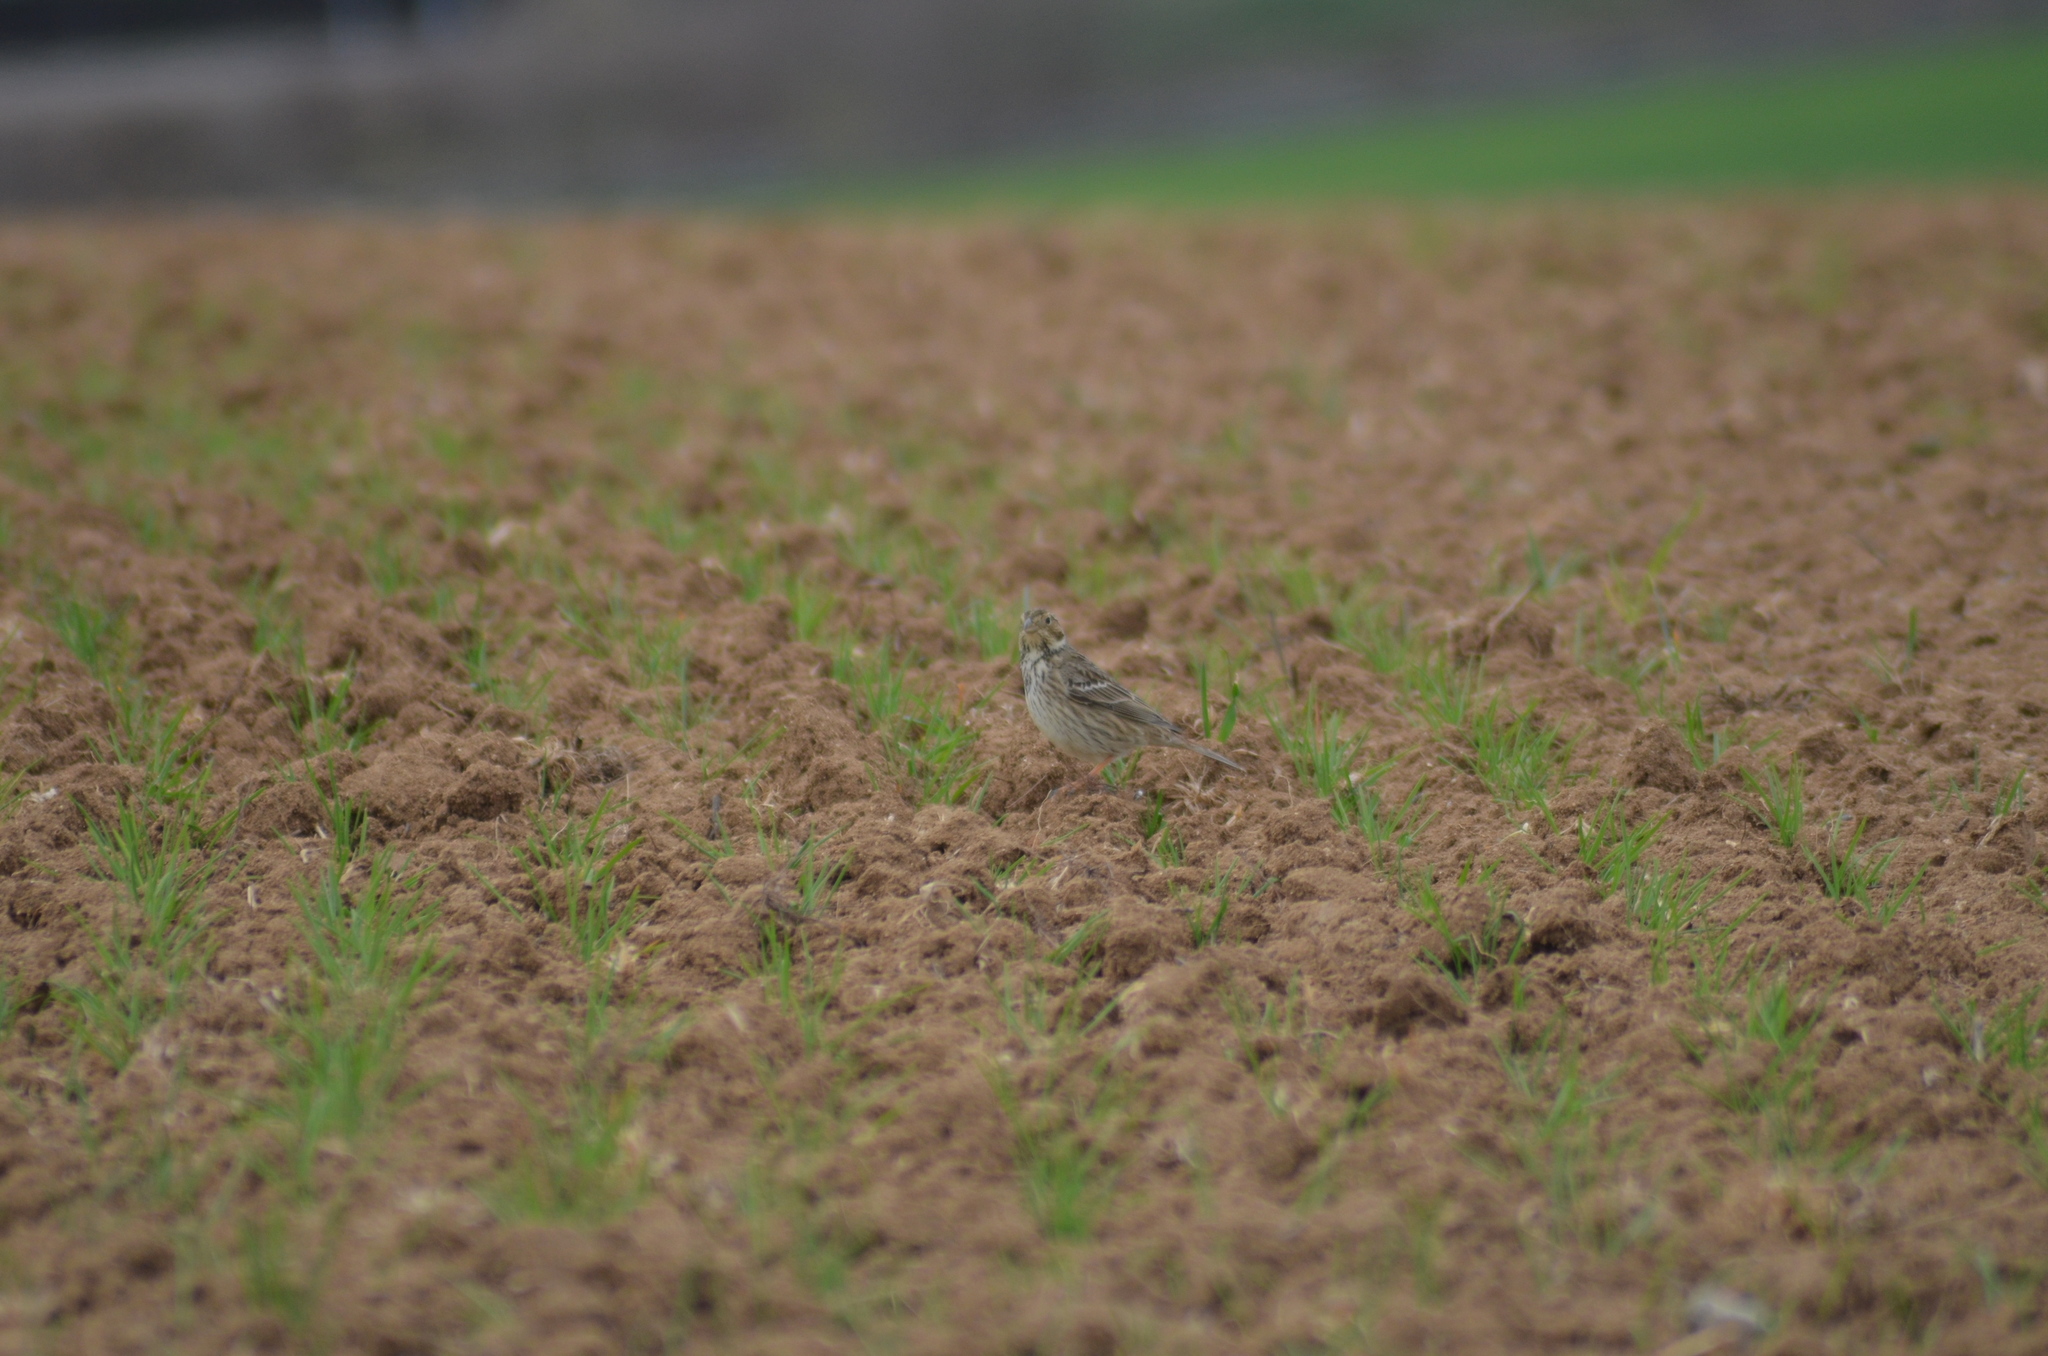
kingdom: Animalia
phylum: Chordata
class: Aves
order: Passeriformes
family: Emberizidae
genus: Emberiza
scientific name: Emberiza calandra
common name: Corn bunting
